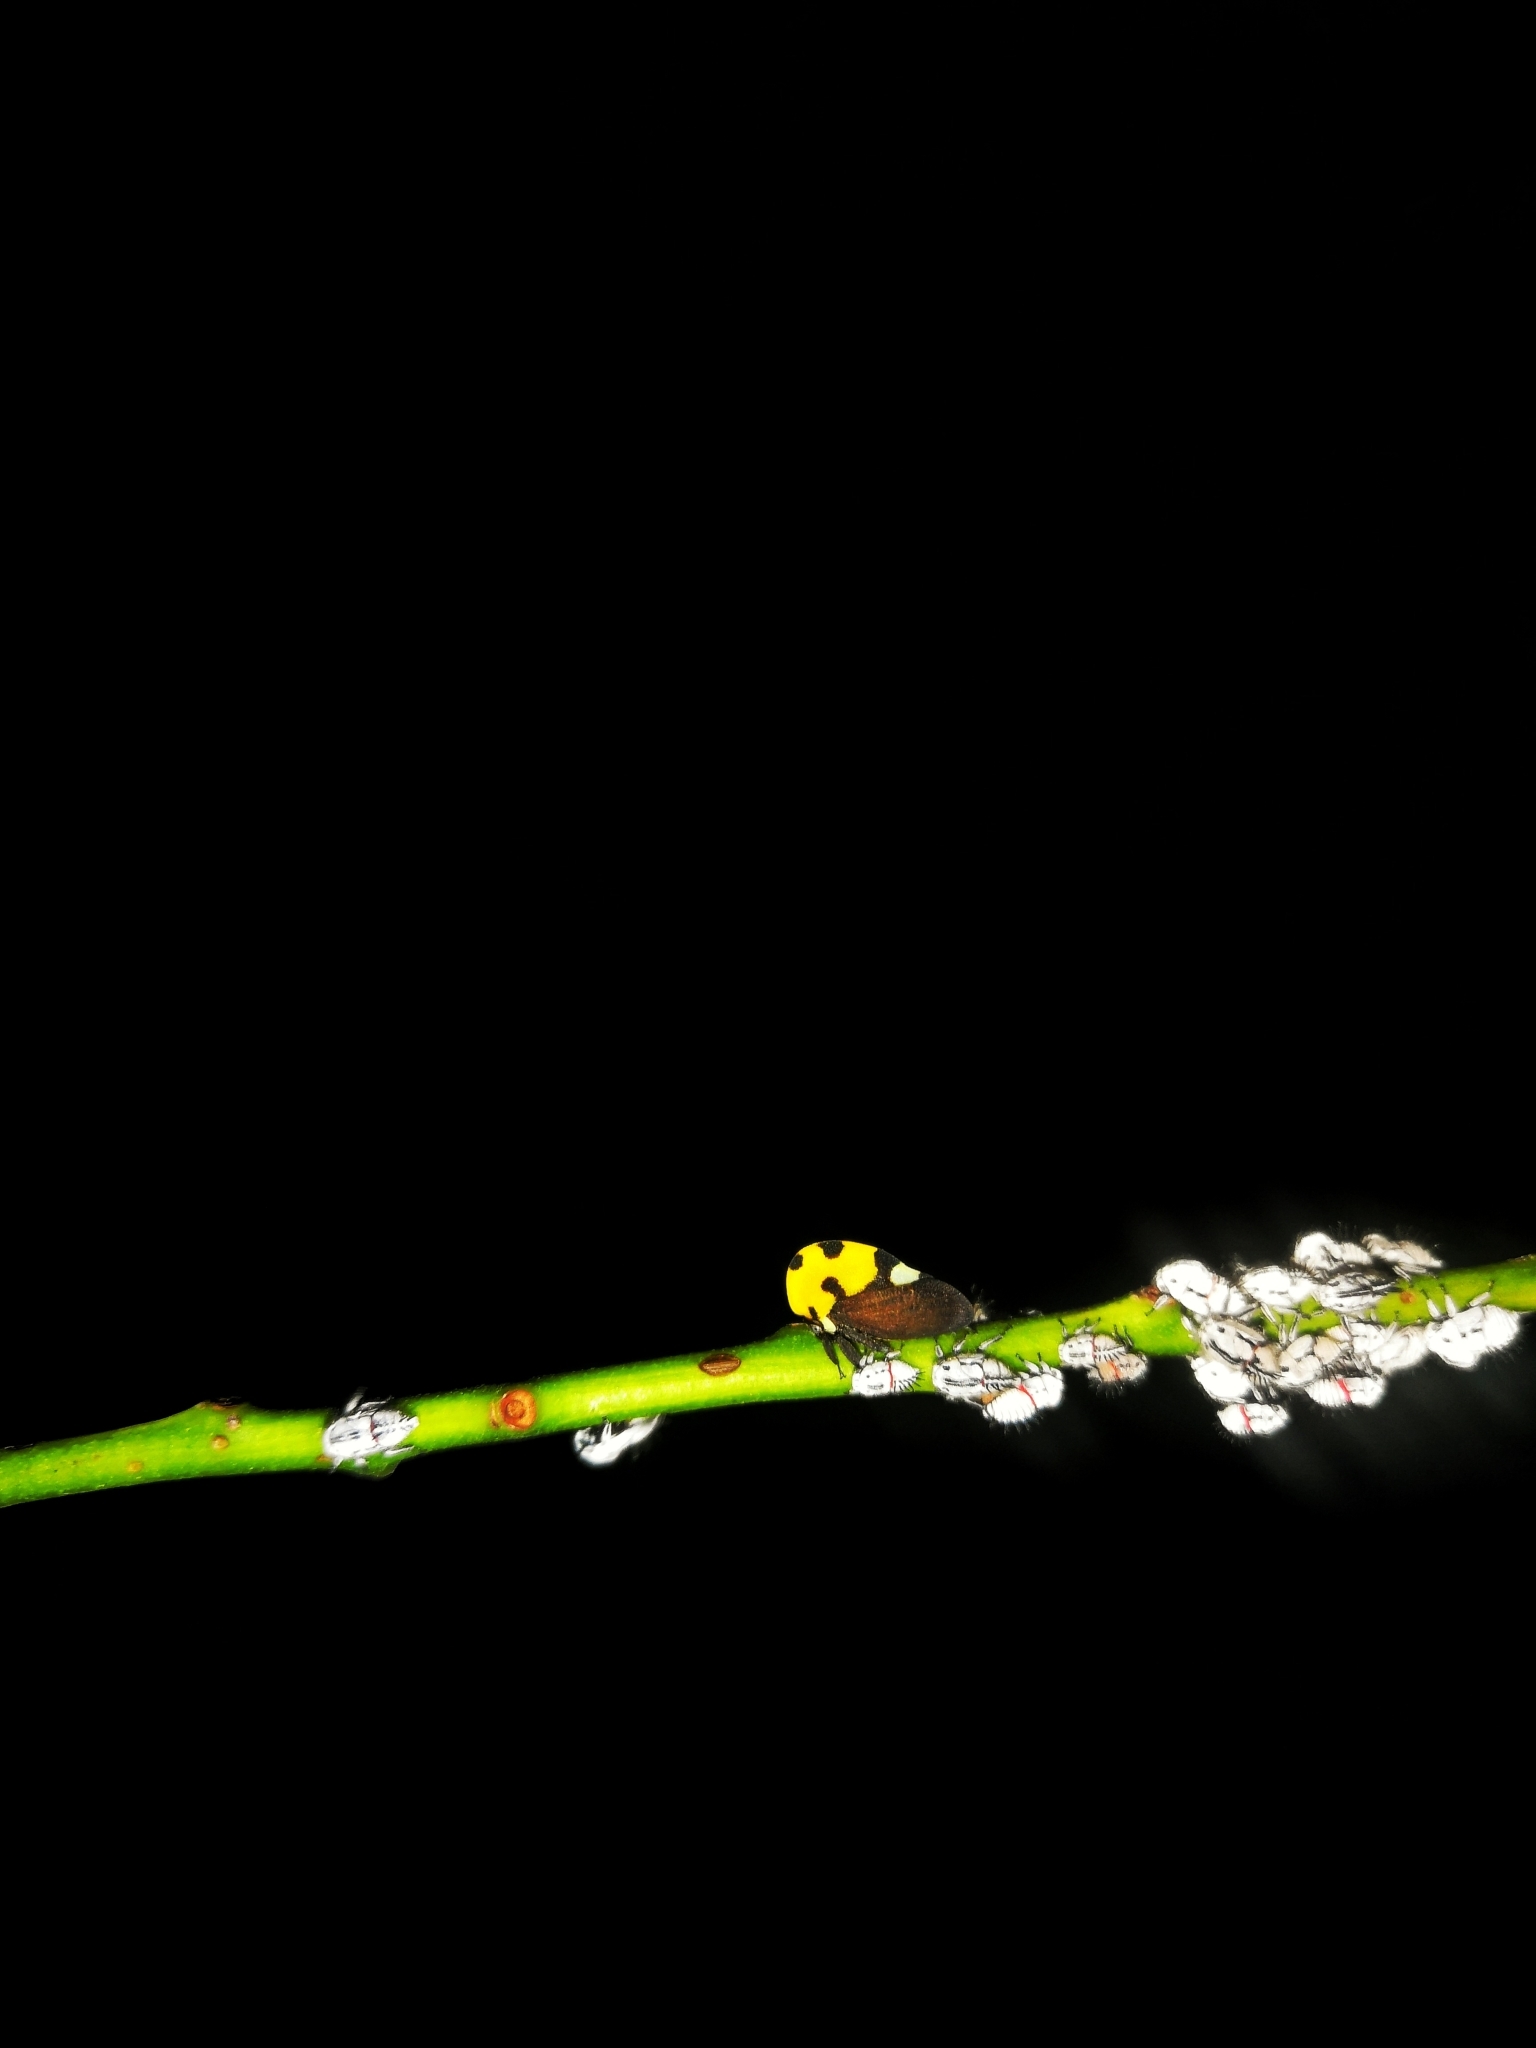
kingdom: Animalia
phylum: Arthropoda
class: Insecta
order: Hemiptera
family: Membracidae
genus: Membracis
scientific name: Membracis mexicana
